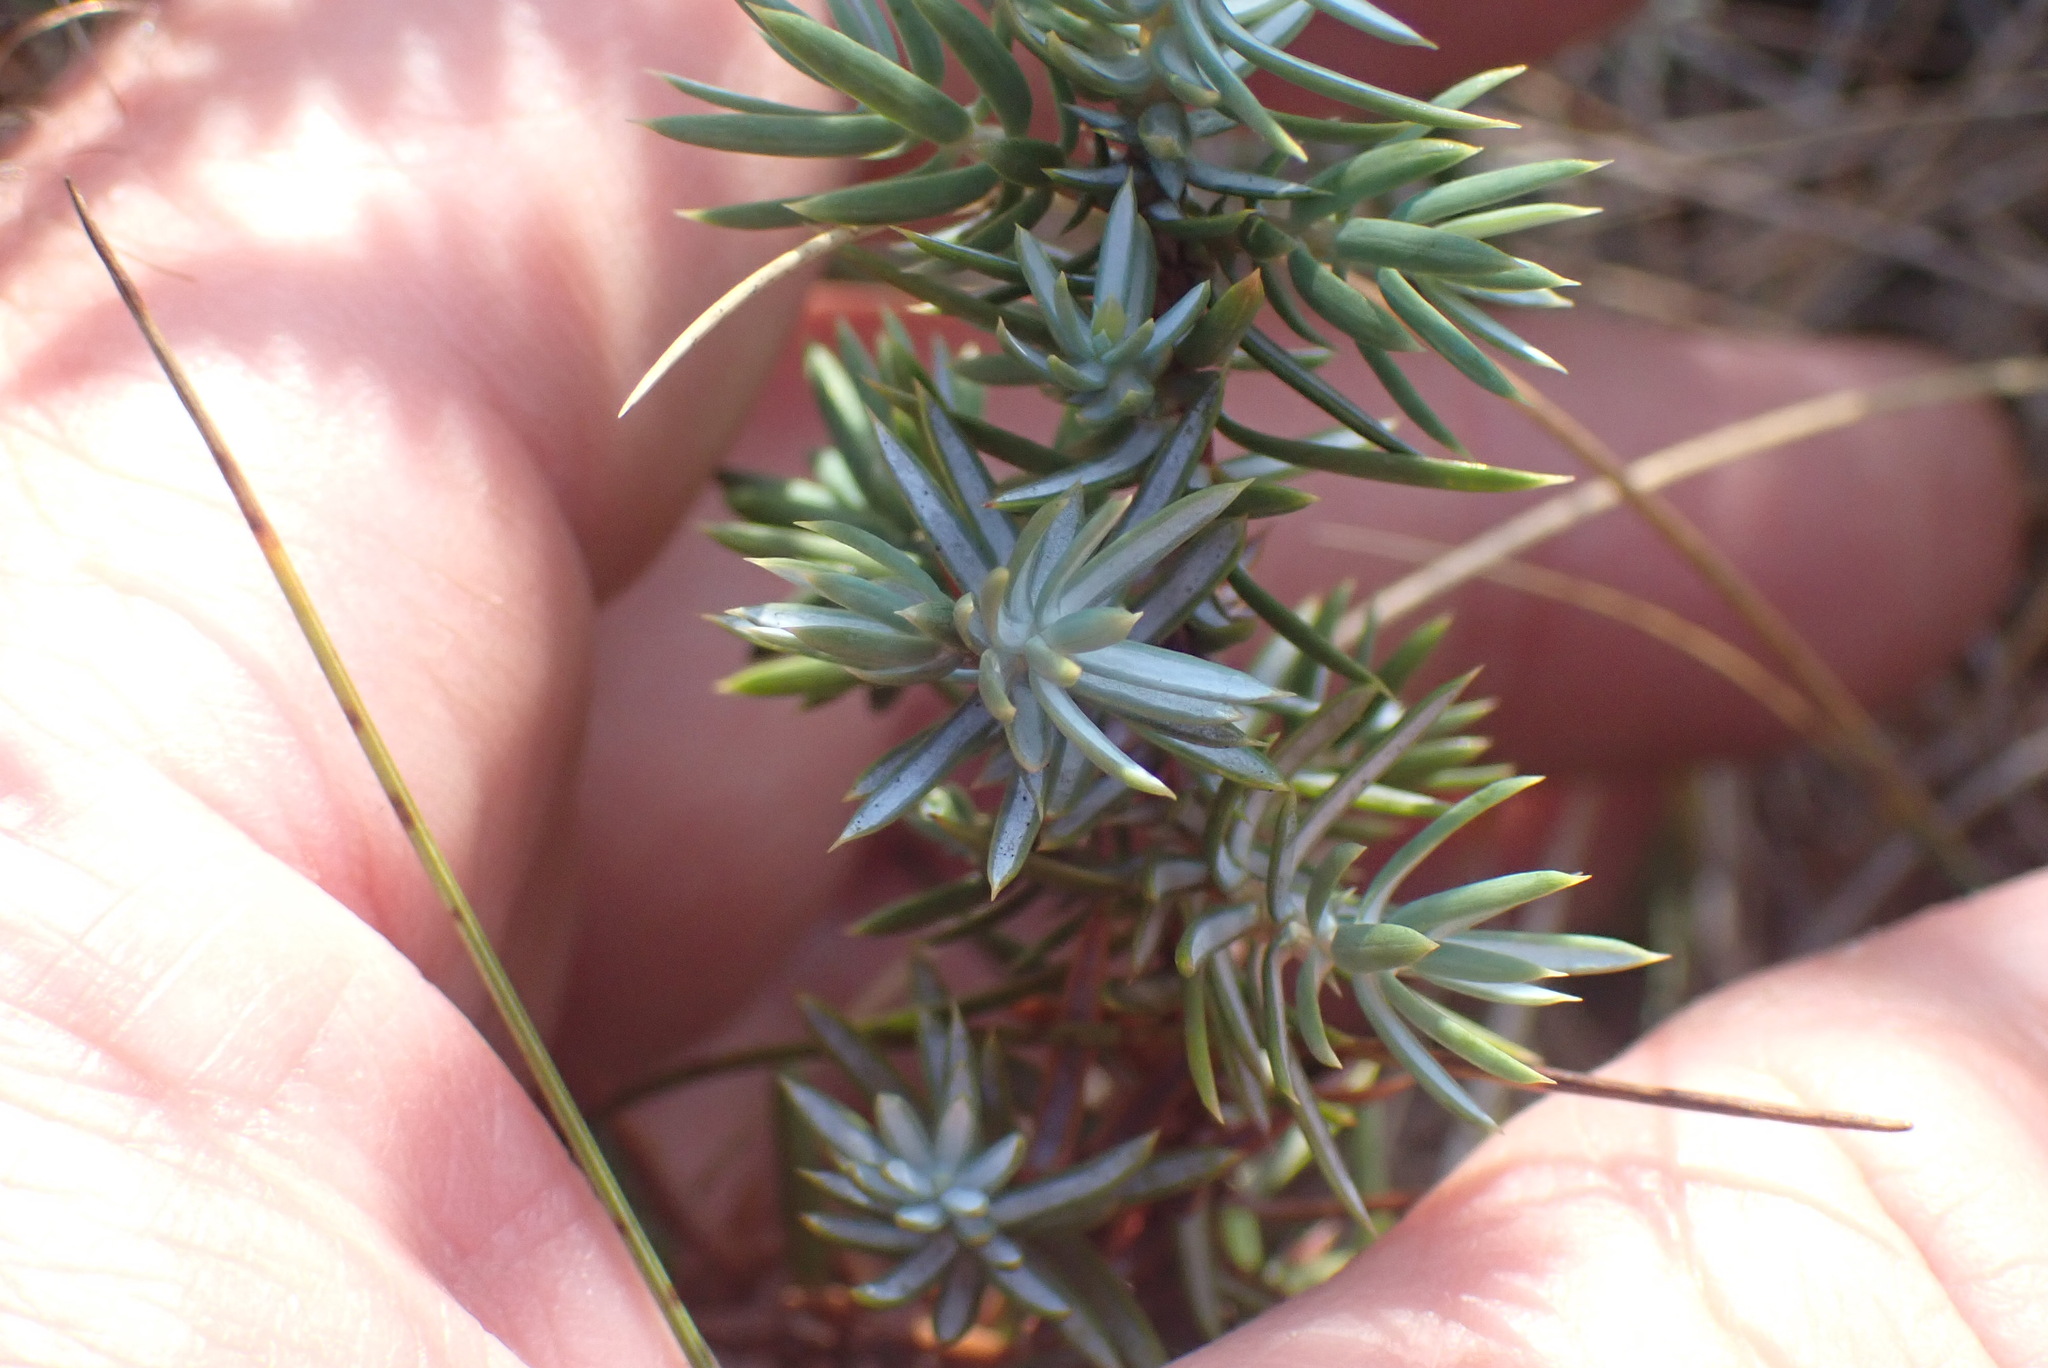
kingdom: Plantae
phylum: Tracheophyta
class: Pinopsida
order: Pinales
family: Cupressaceae
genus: Juniperus
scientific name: Juniperus communis
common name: Common juniper
